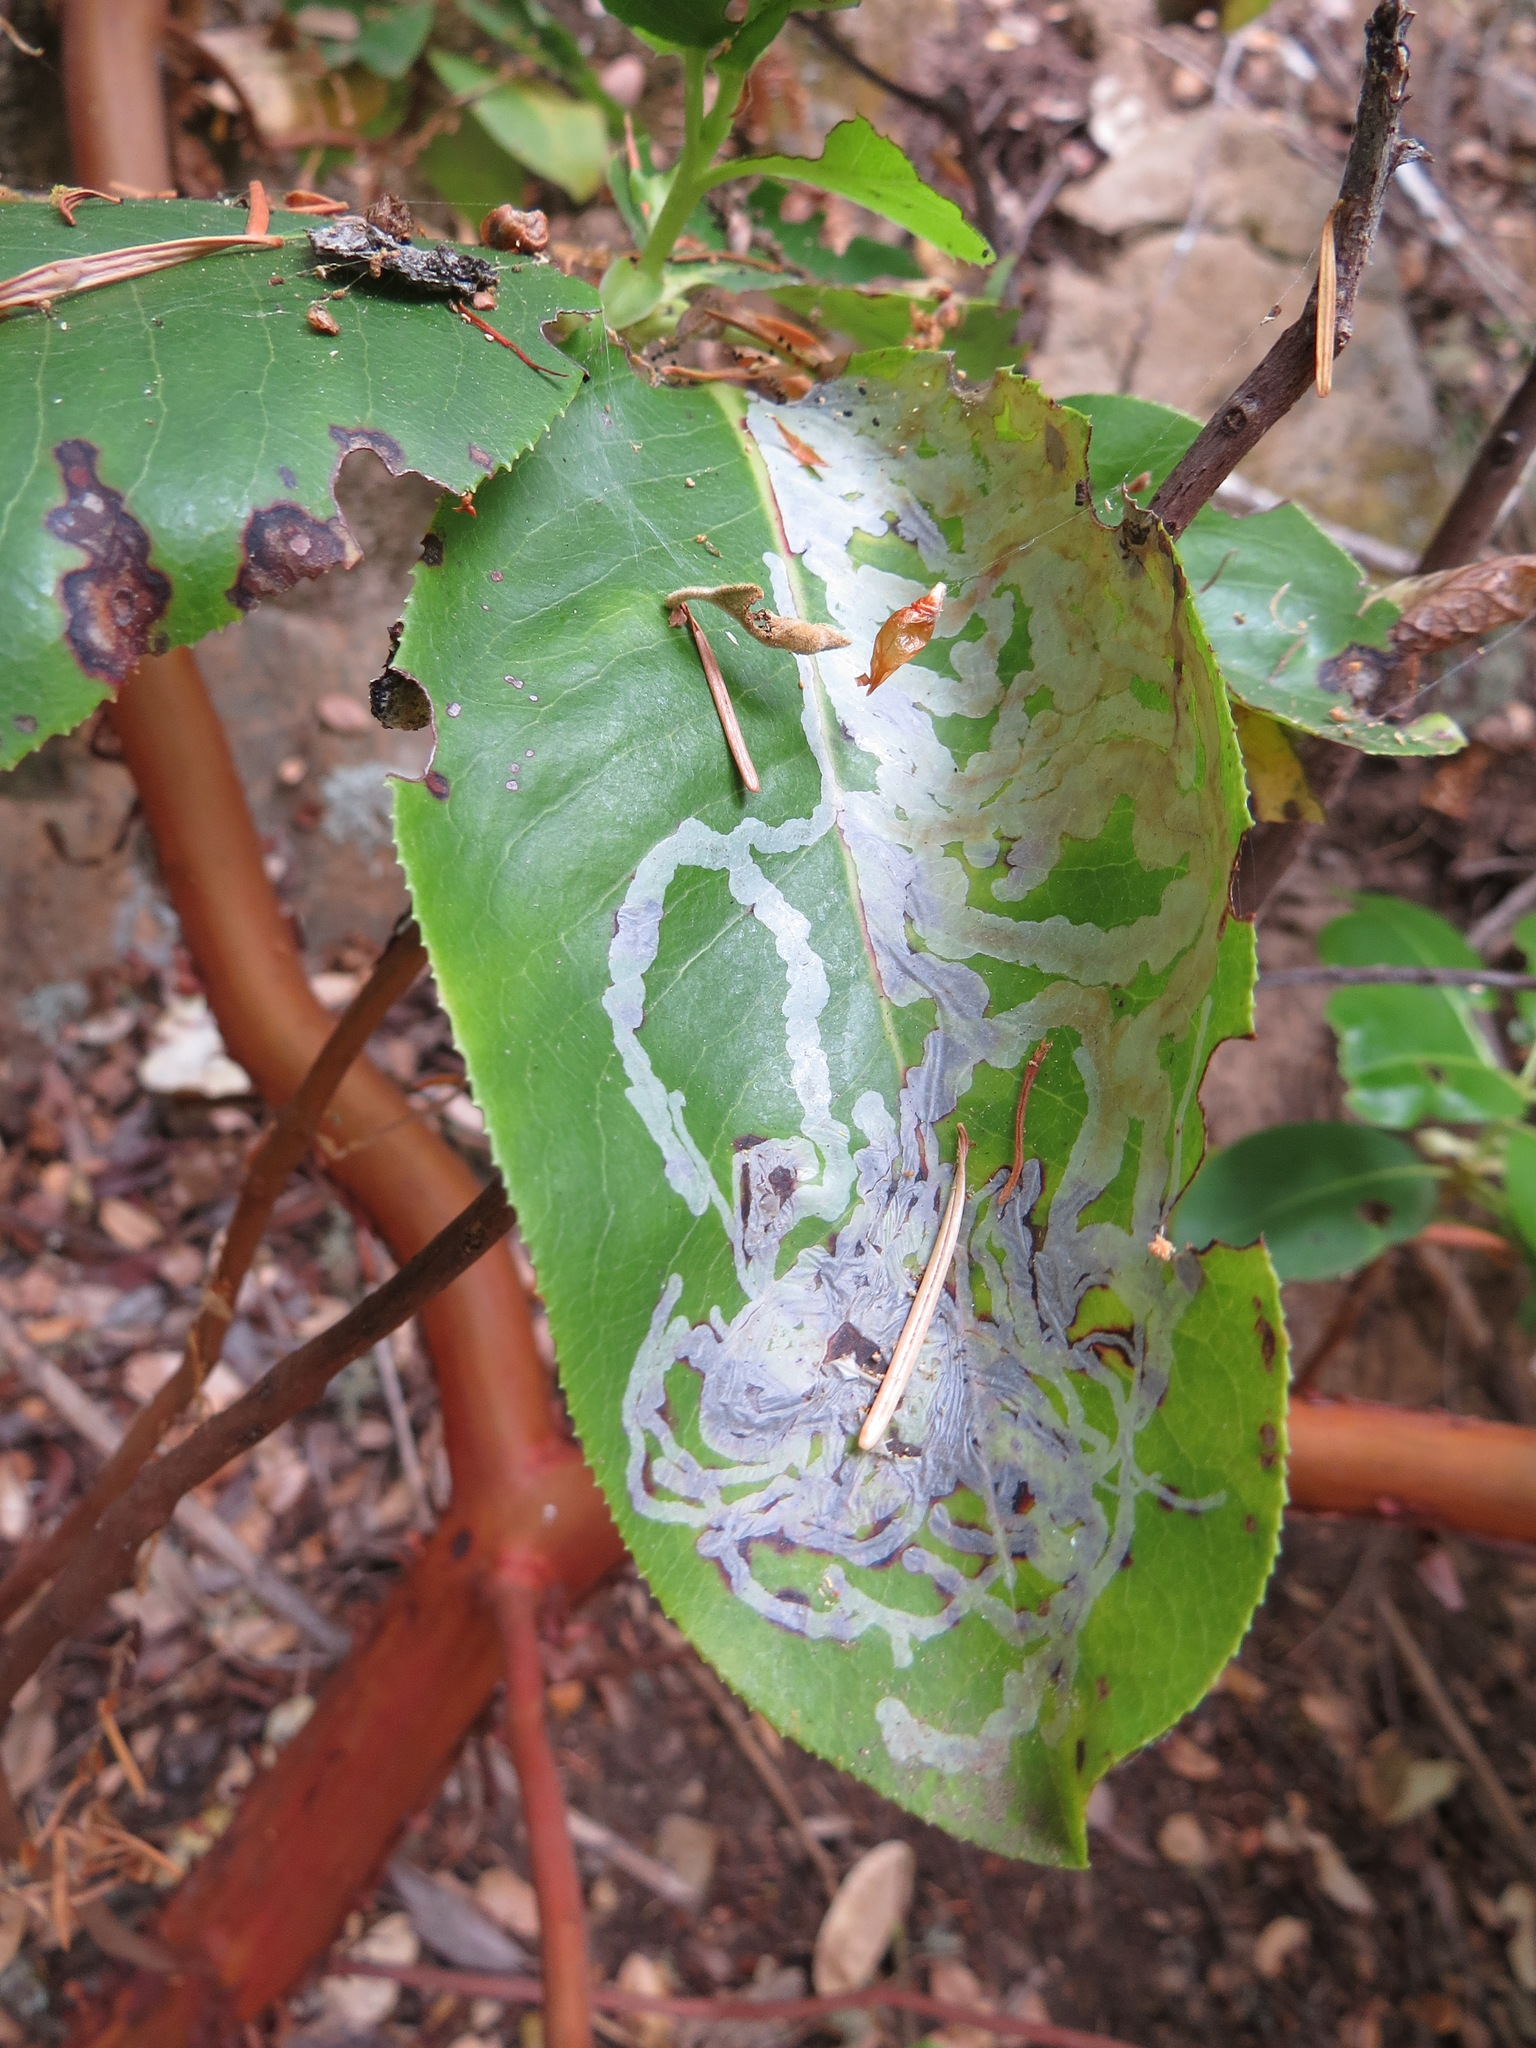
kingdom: Animalia
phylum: Arthropoda
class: Insecta
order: Lepidoptera
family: Gracillariidae
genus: Marmara
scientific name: Marmara arbutiella
